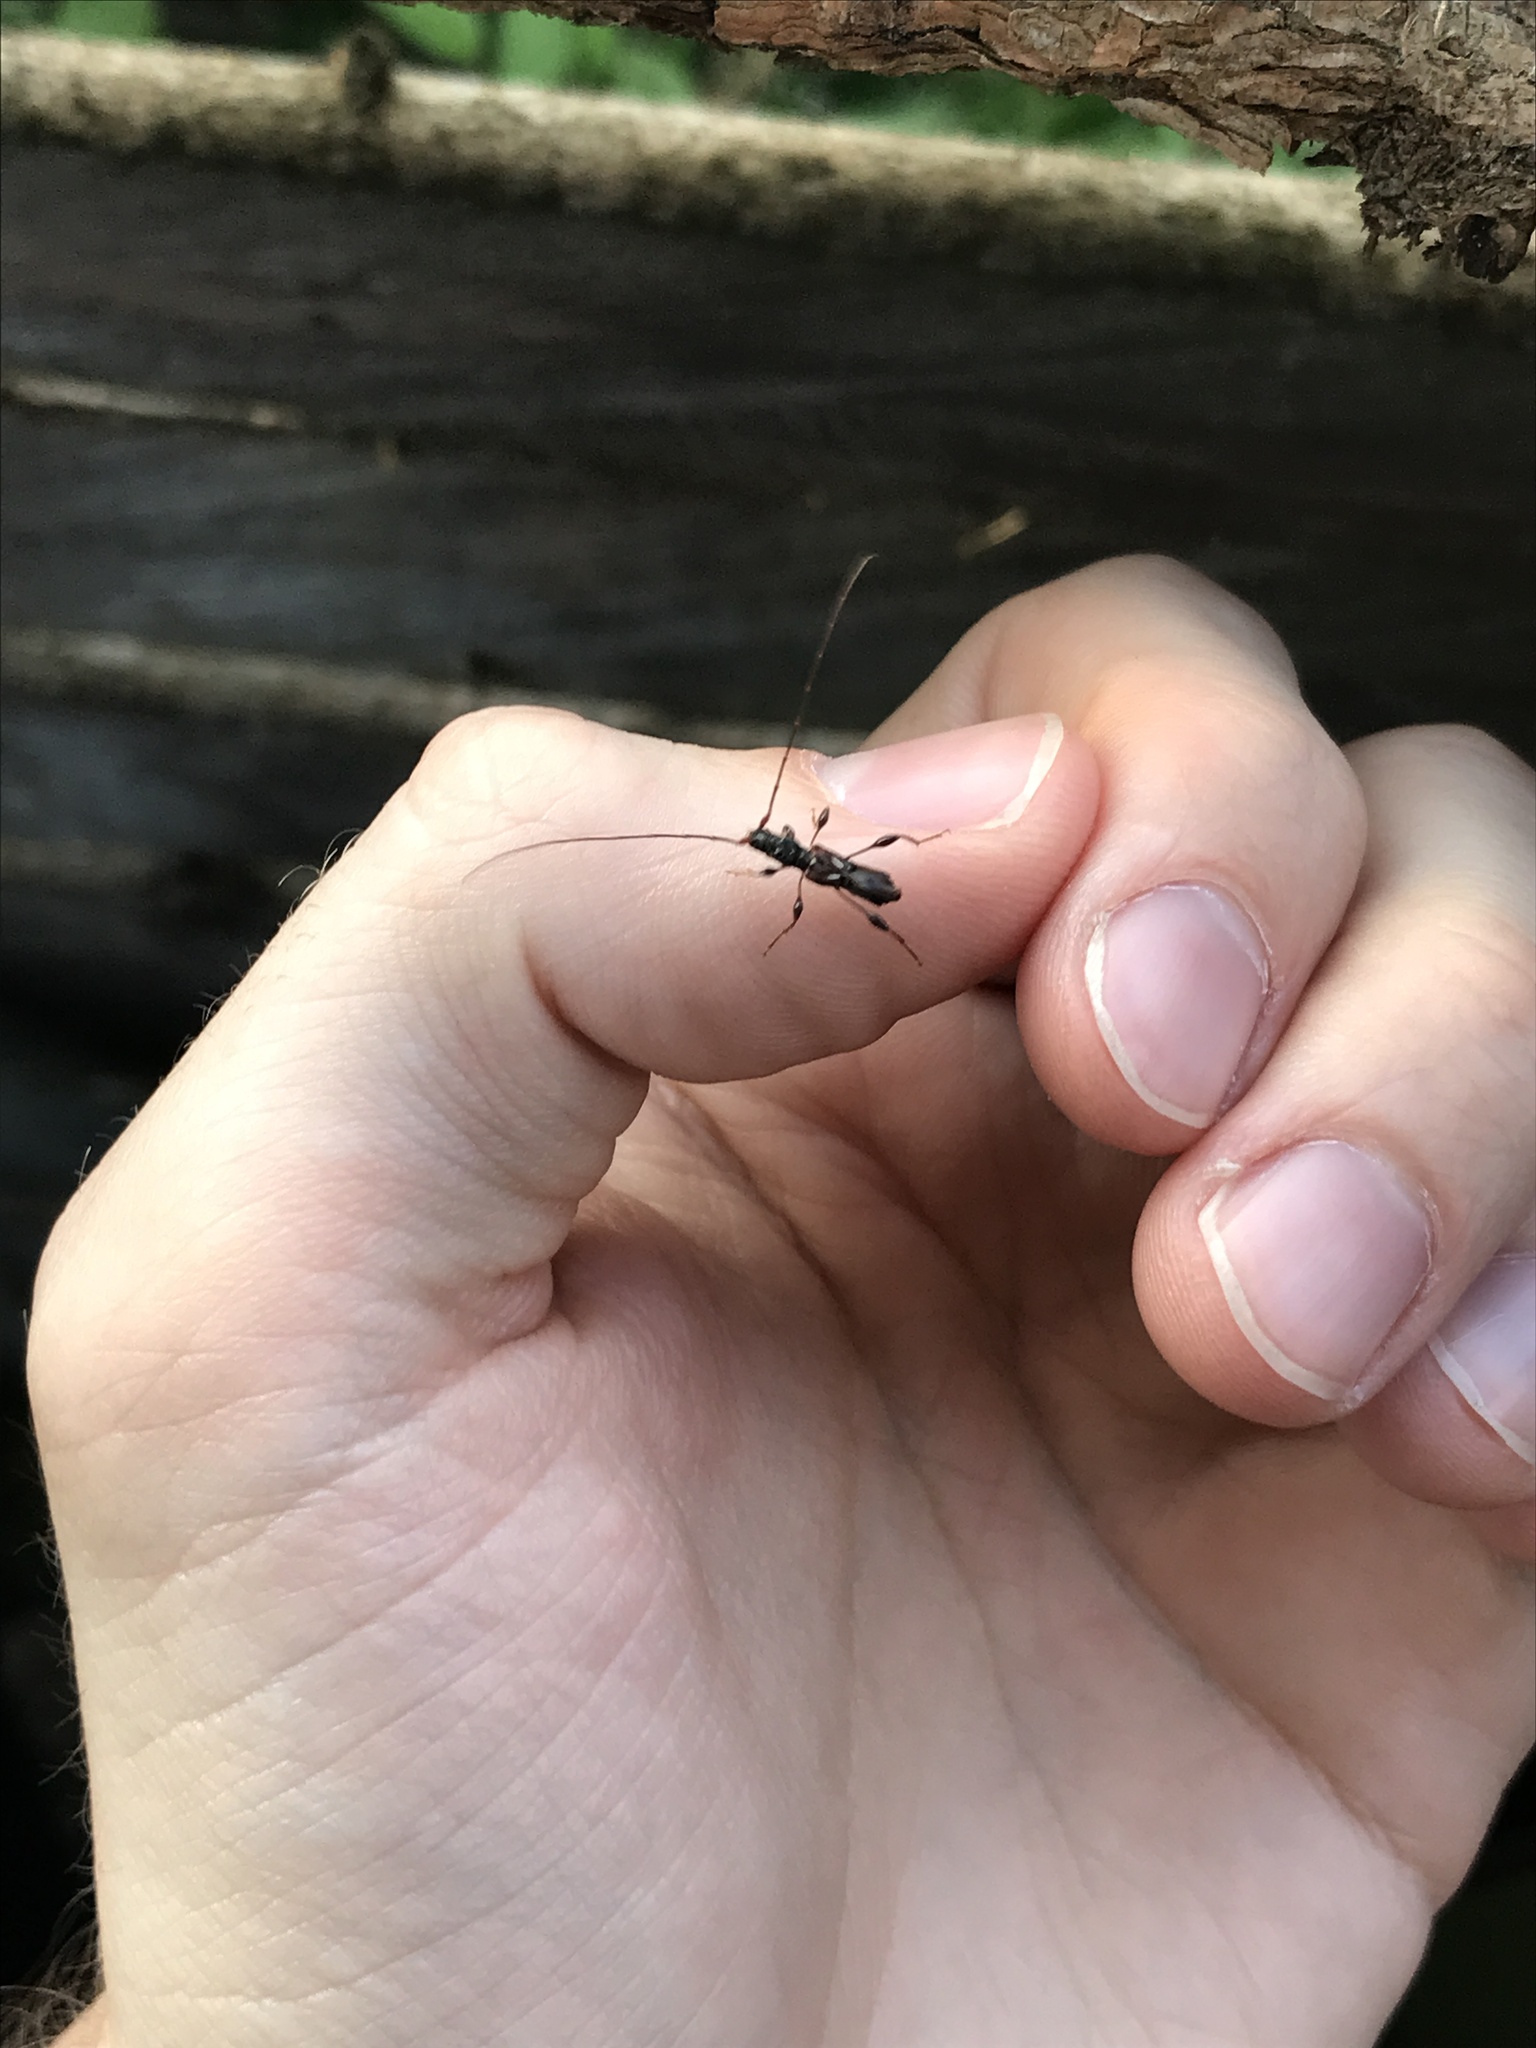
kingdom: Animalia
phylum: Arthropoda
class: Insecta
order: Coleoptera
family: Cerambycidae
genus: Molorchus
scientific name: Molorchus minor
